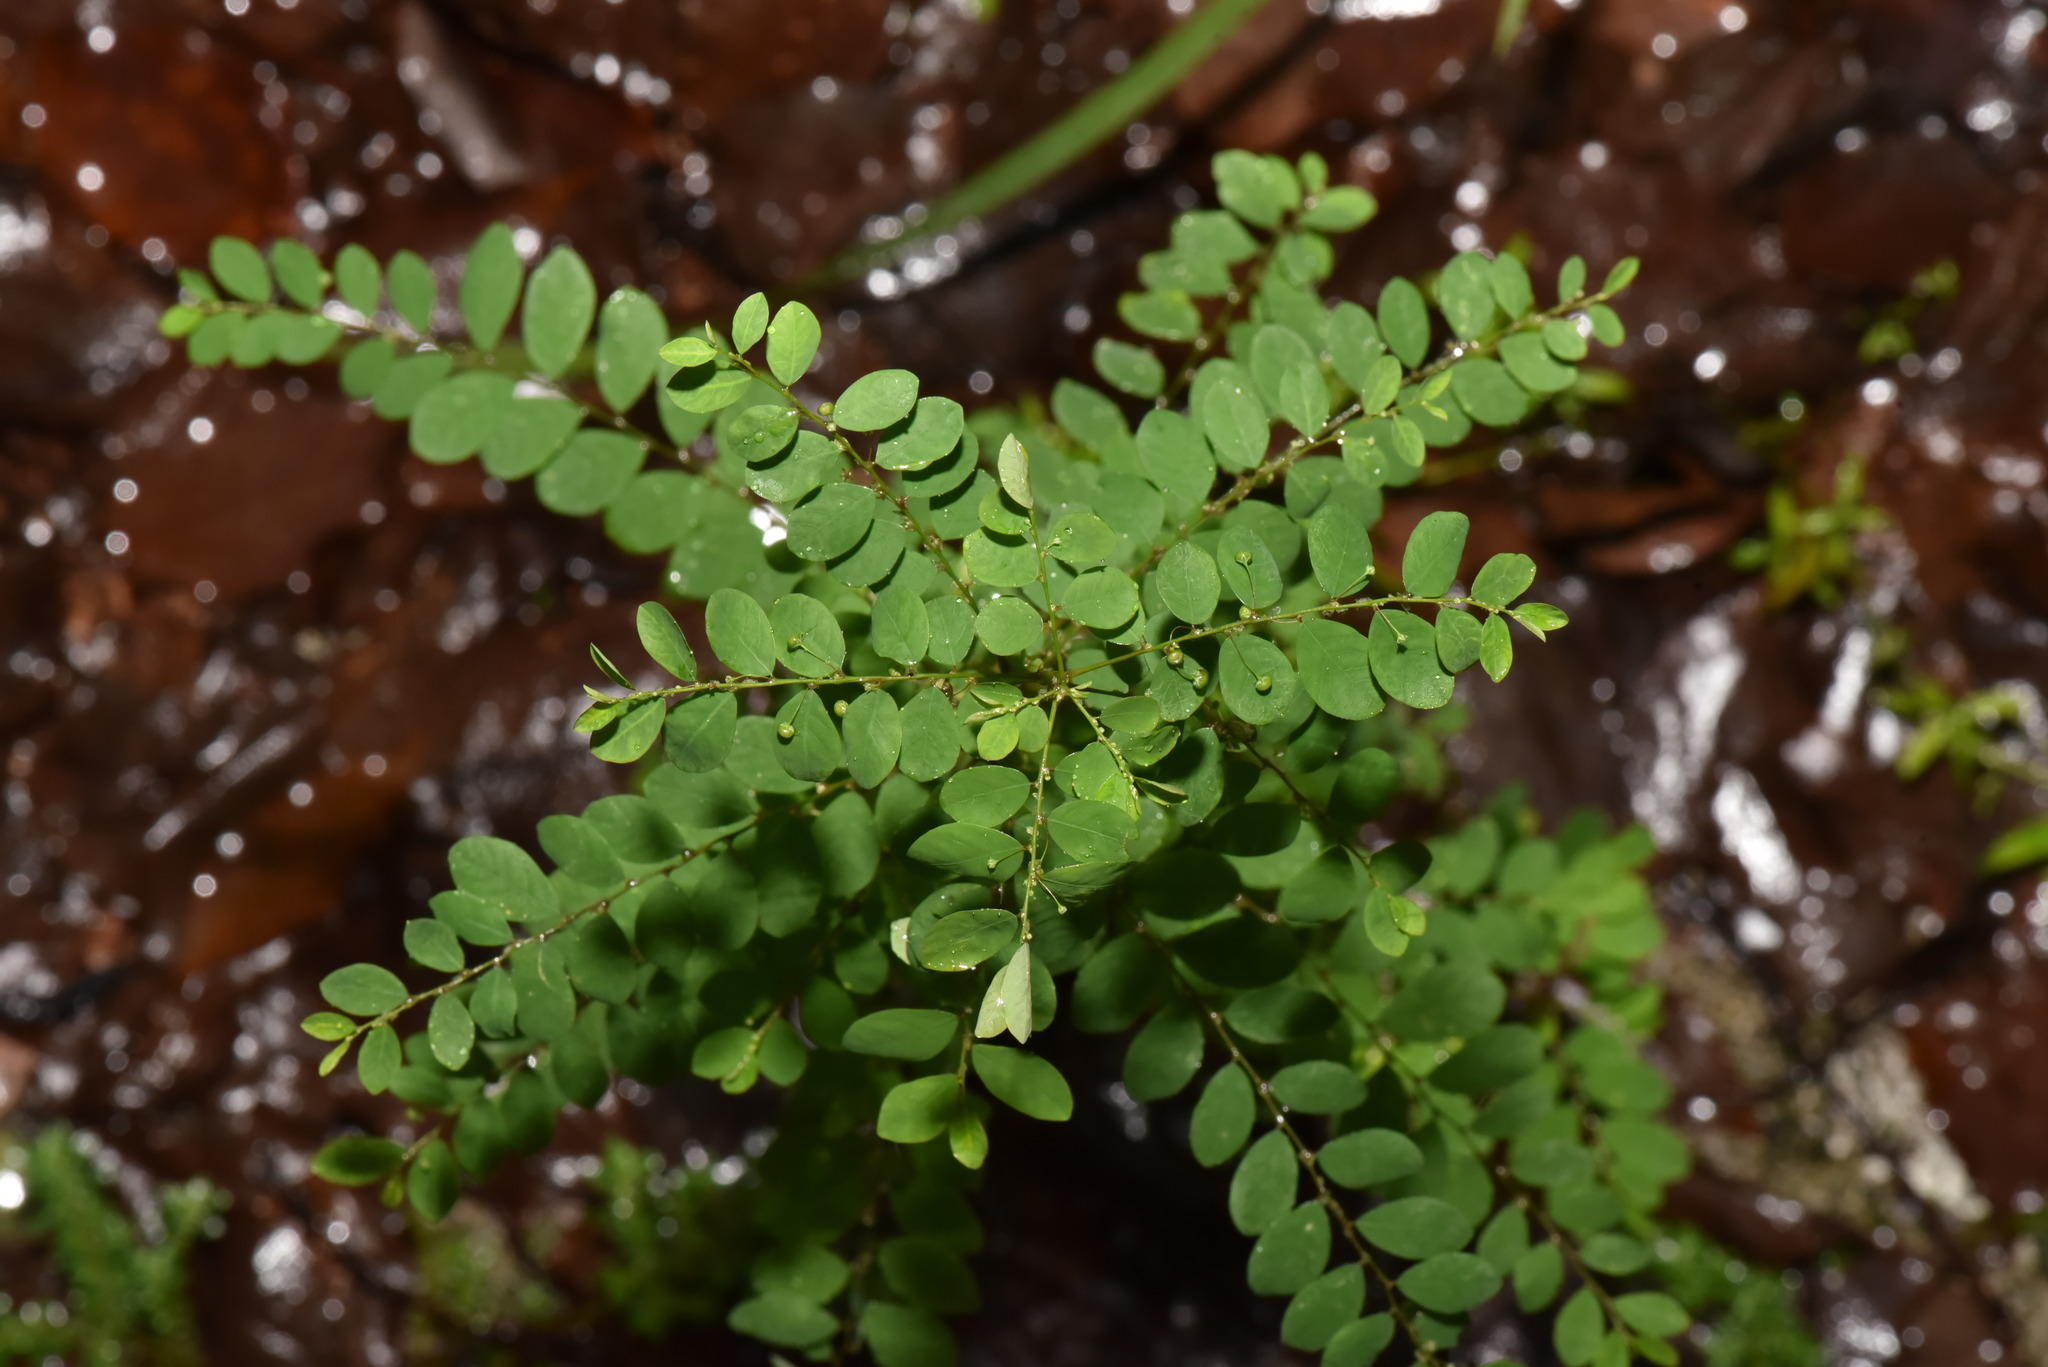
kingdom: Plantae
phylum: Tracheophyta
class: Magnoliopsida
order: Malpighiales
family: Phyllanthaceae
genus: Phyllanthus
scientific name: Phyllanthus tenellus
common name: Mascarene island leaf-flower
